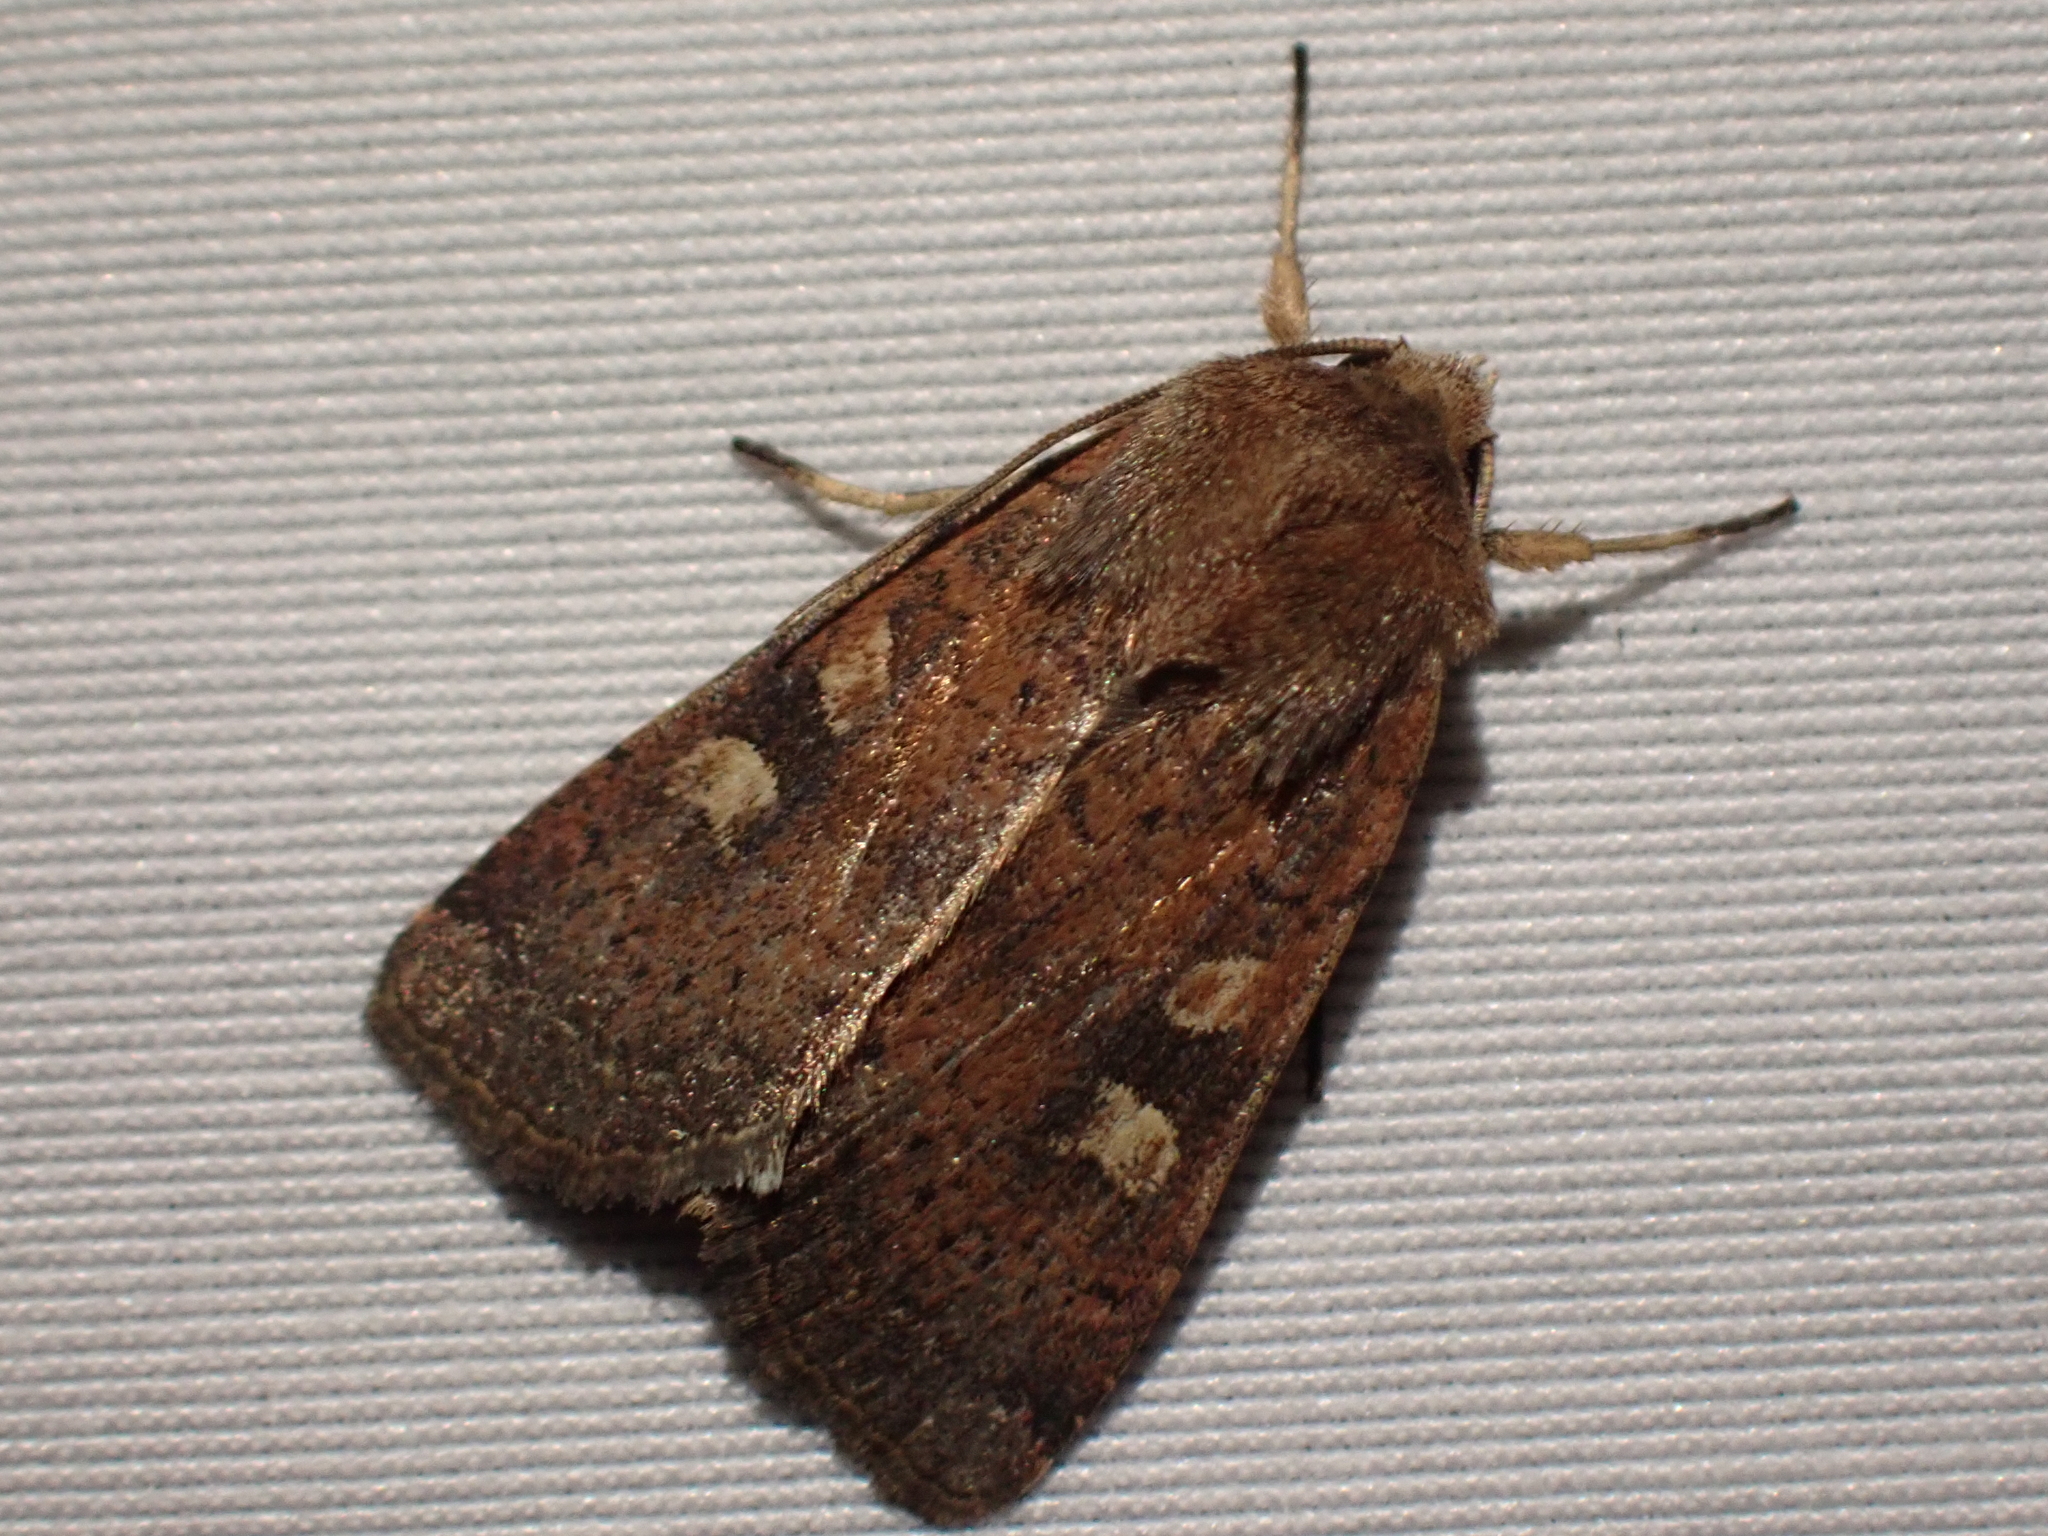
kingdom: Animalia
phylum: Arthropoda
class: Insecta
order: Lepidoptera
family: Noctuidae
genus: Xestia
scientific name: Xestia xanthographa
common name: Square-spot rustic
